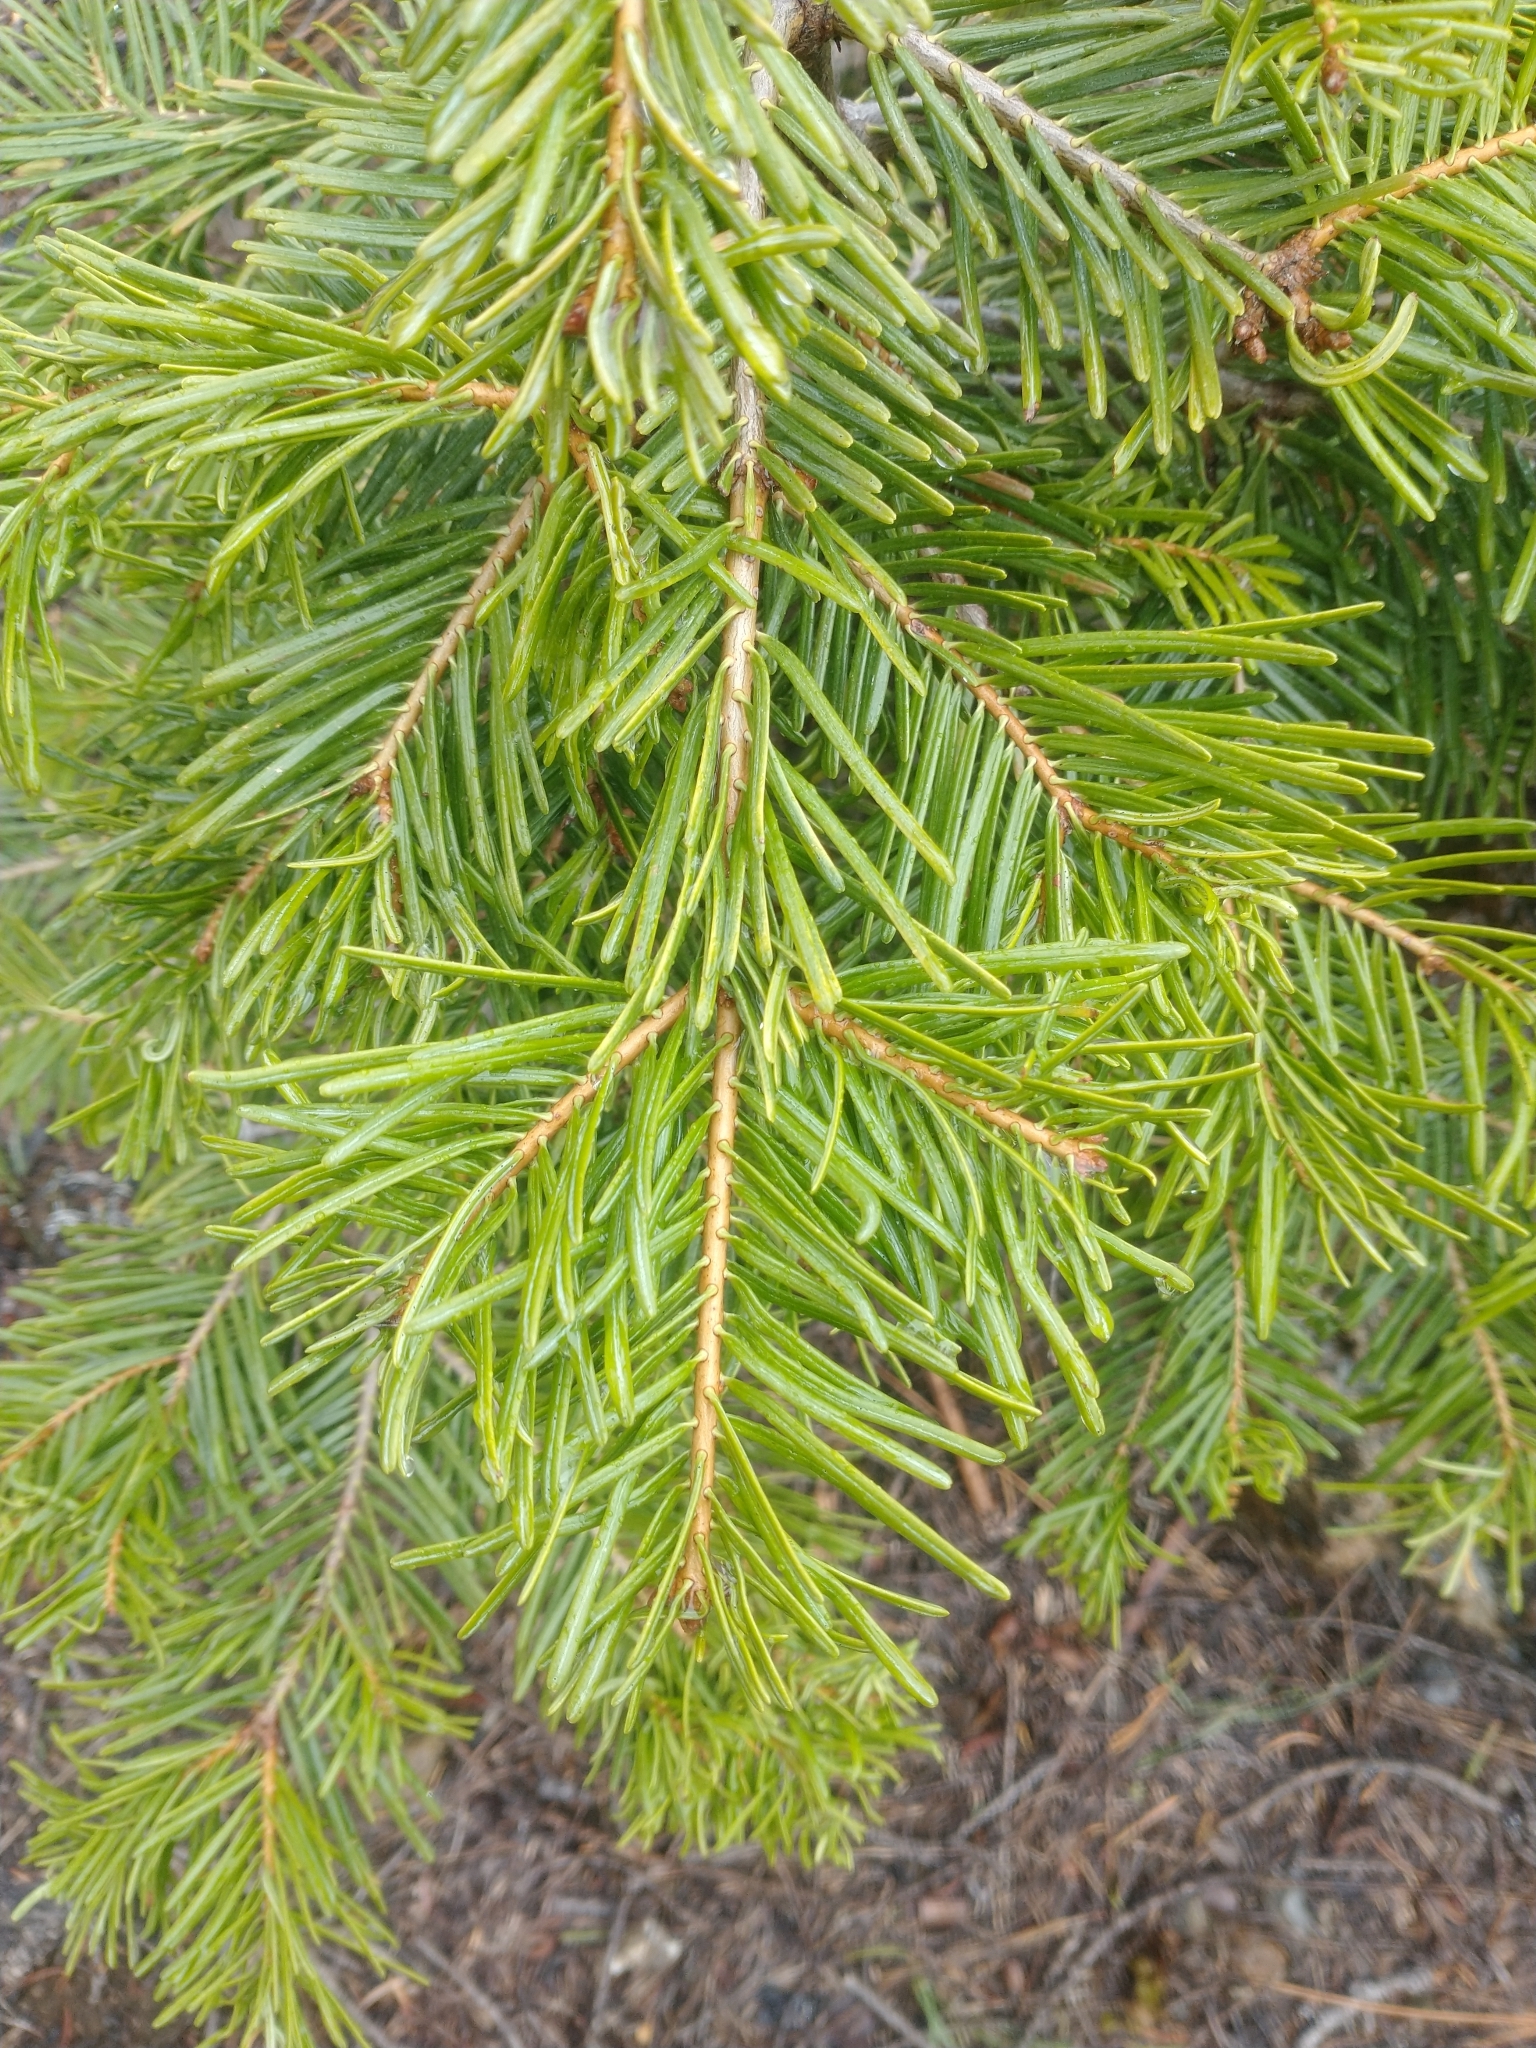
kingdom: Plantae
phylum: Tracheophyta
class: Pinopsida
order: Pinales
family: Pinaceae
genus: Abies
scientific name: Abies concolor
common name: Colorado fir
